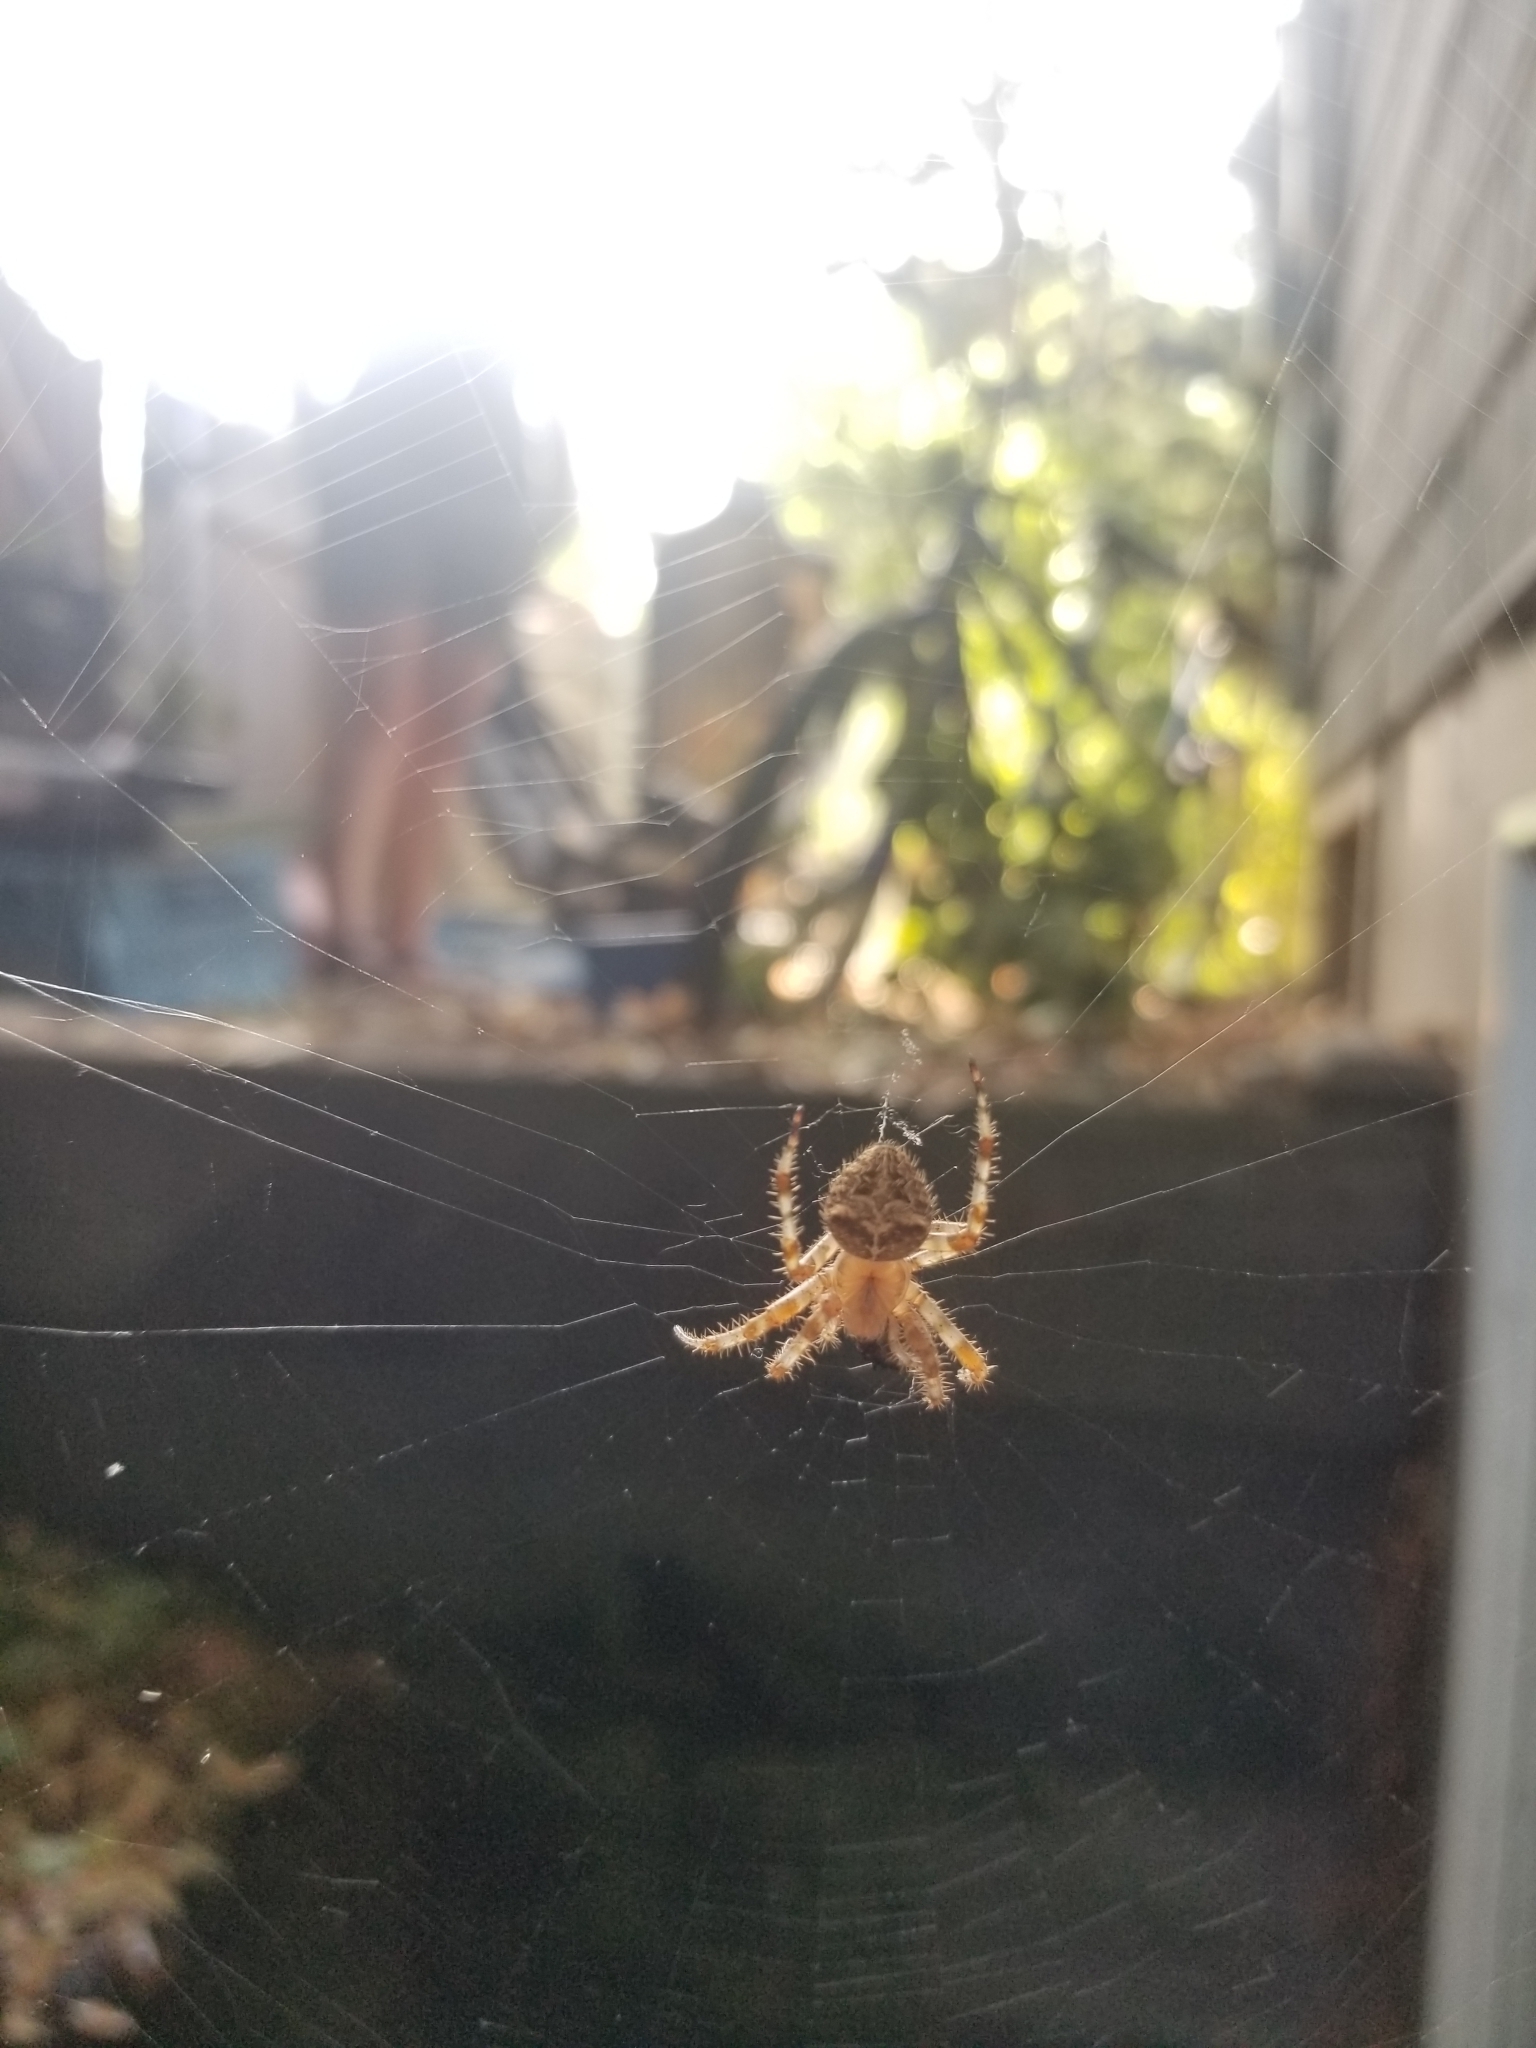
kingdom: Animalia
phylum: Arthropoda
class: Arachnida
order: Araneae
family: Araneidae
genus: Araneus
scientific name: Araneus gemmoides
